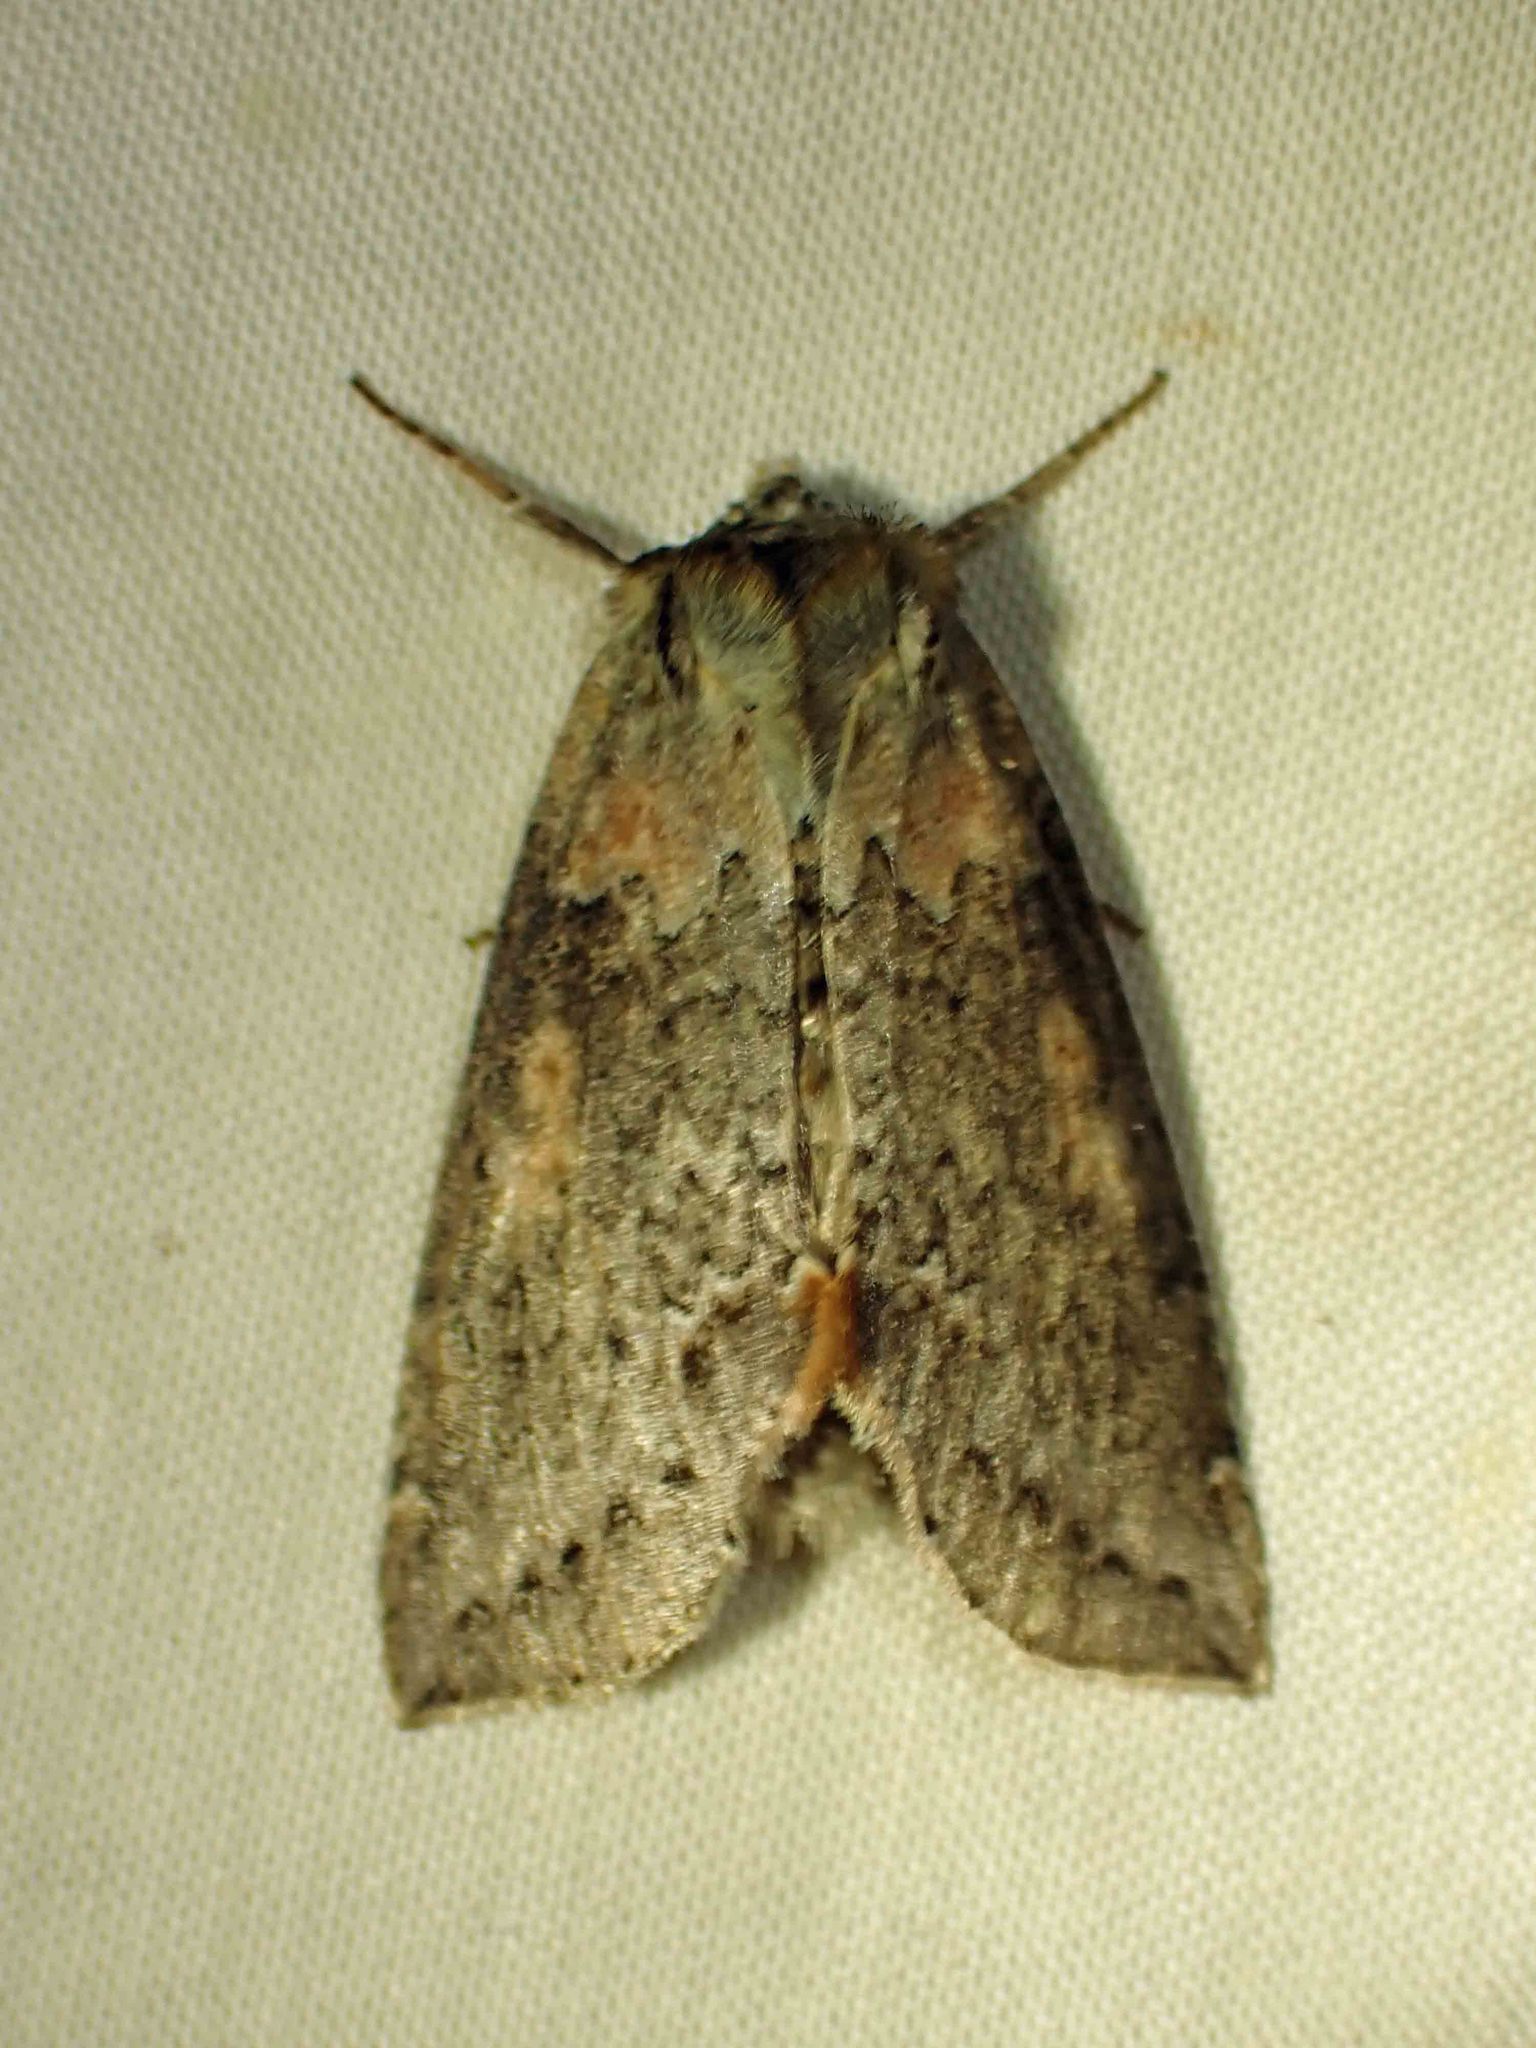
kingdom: Animalia
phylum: Arthropoda
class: Insecta
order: Lepidoptera
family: Drepanidae
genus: Pseudothyatira
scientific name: Pseudothyatira cymatophoroides
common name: Tufted thyatirid moth
